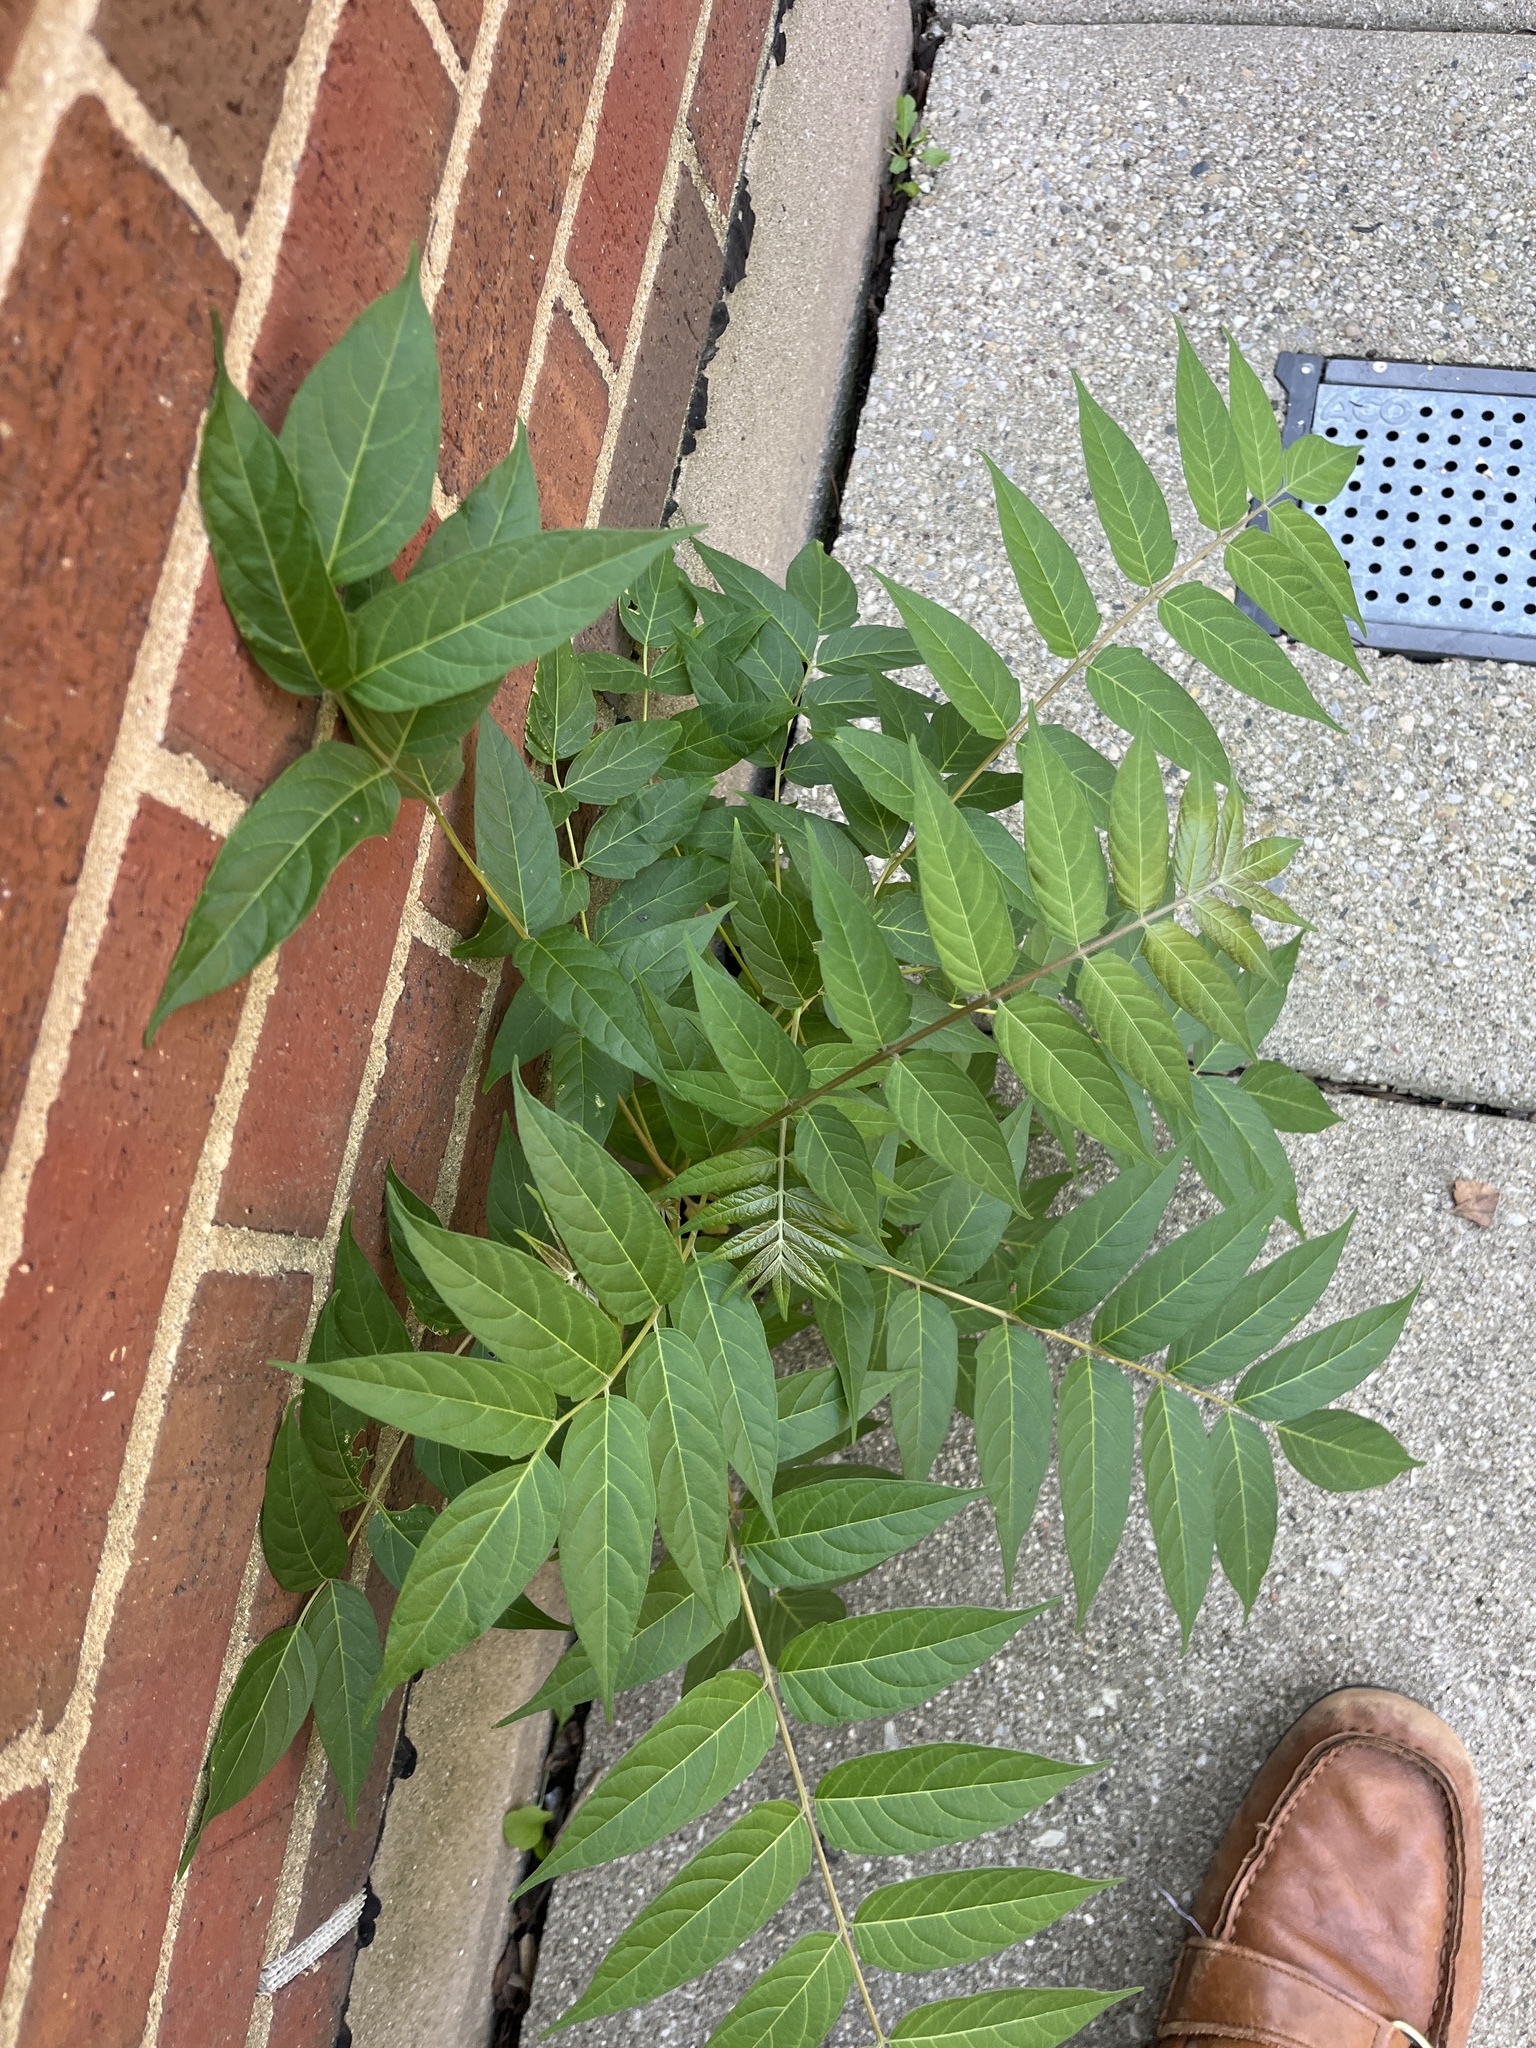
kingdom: Plantae
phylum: Tracheophyta
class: Magnoliopsida
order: Sapindales
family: Simaroubaceae
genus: Ailanthus
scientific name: Ailanthus altissima
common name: Tree-of-heaven
